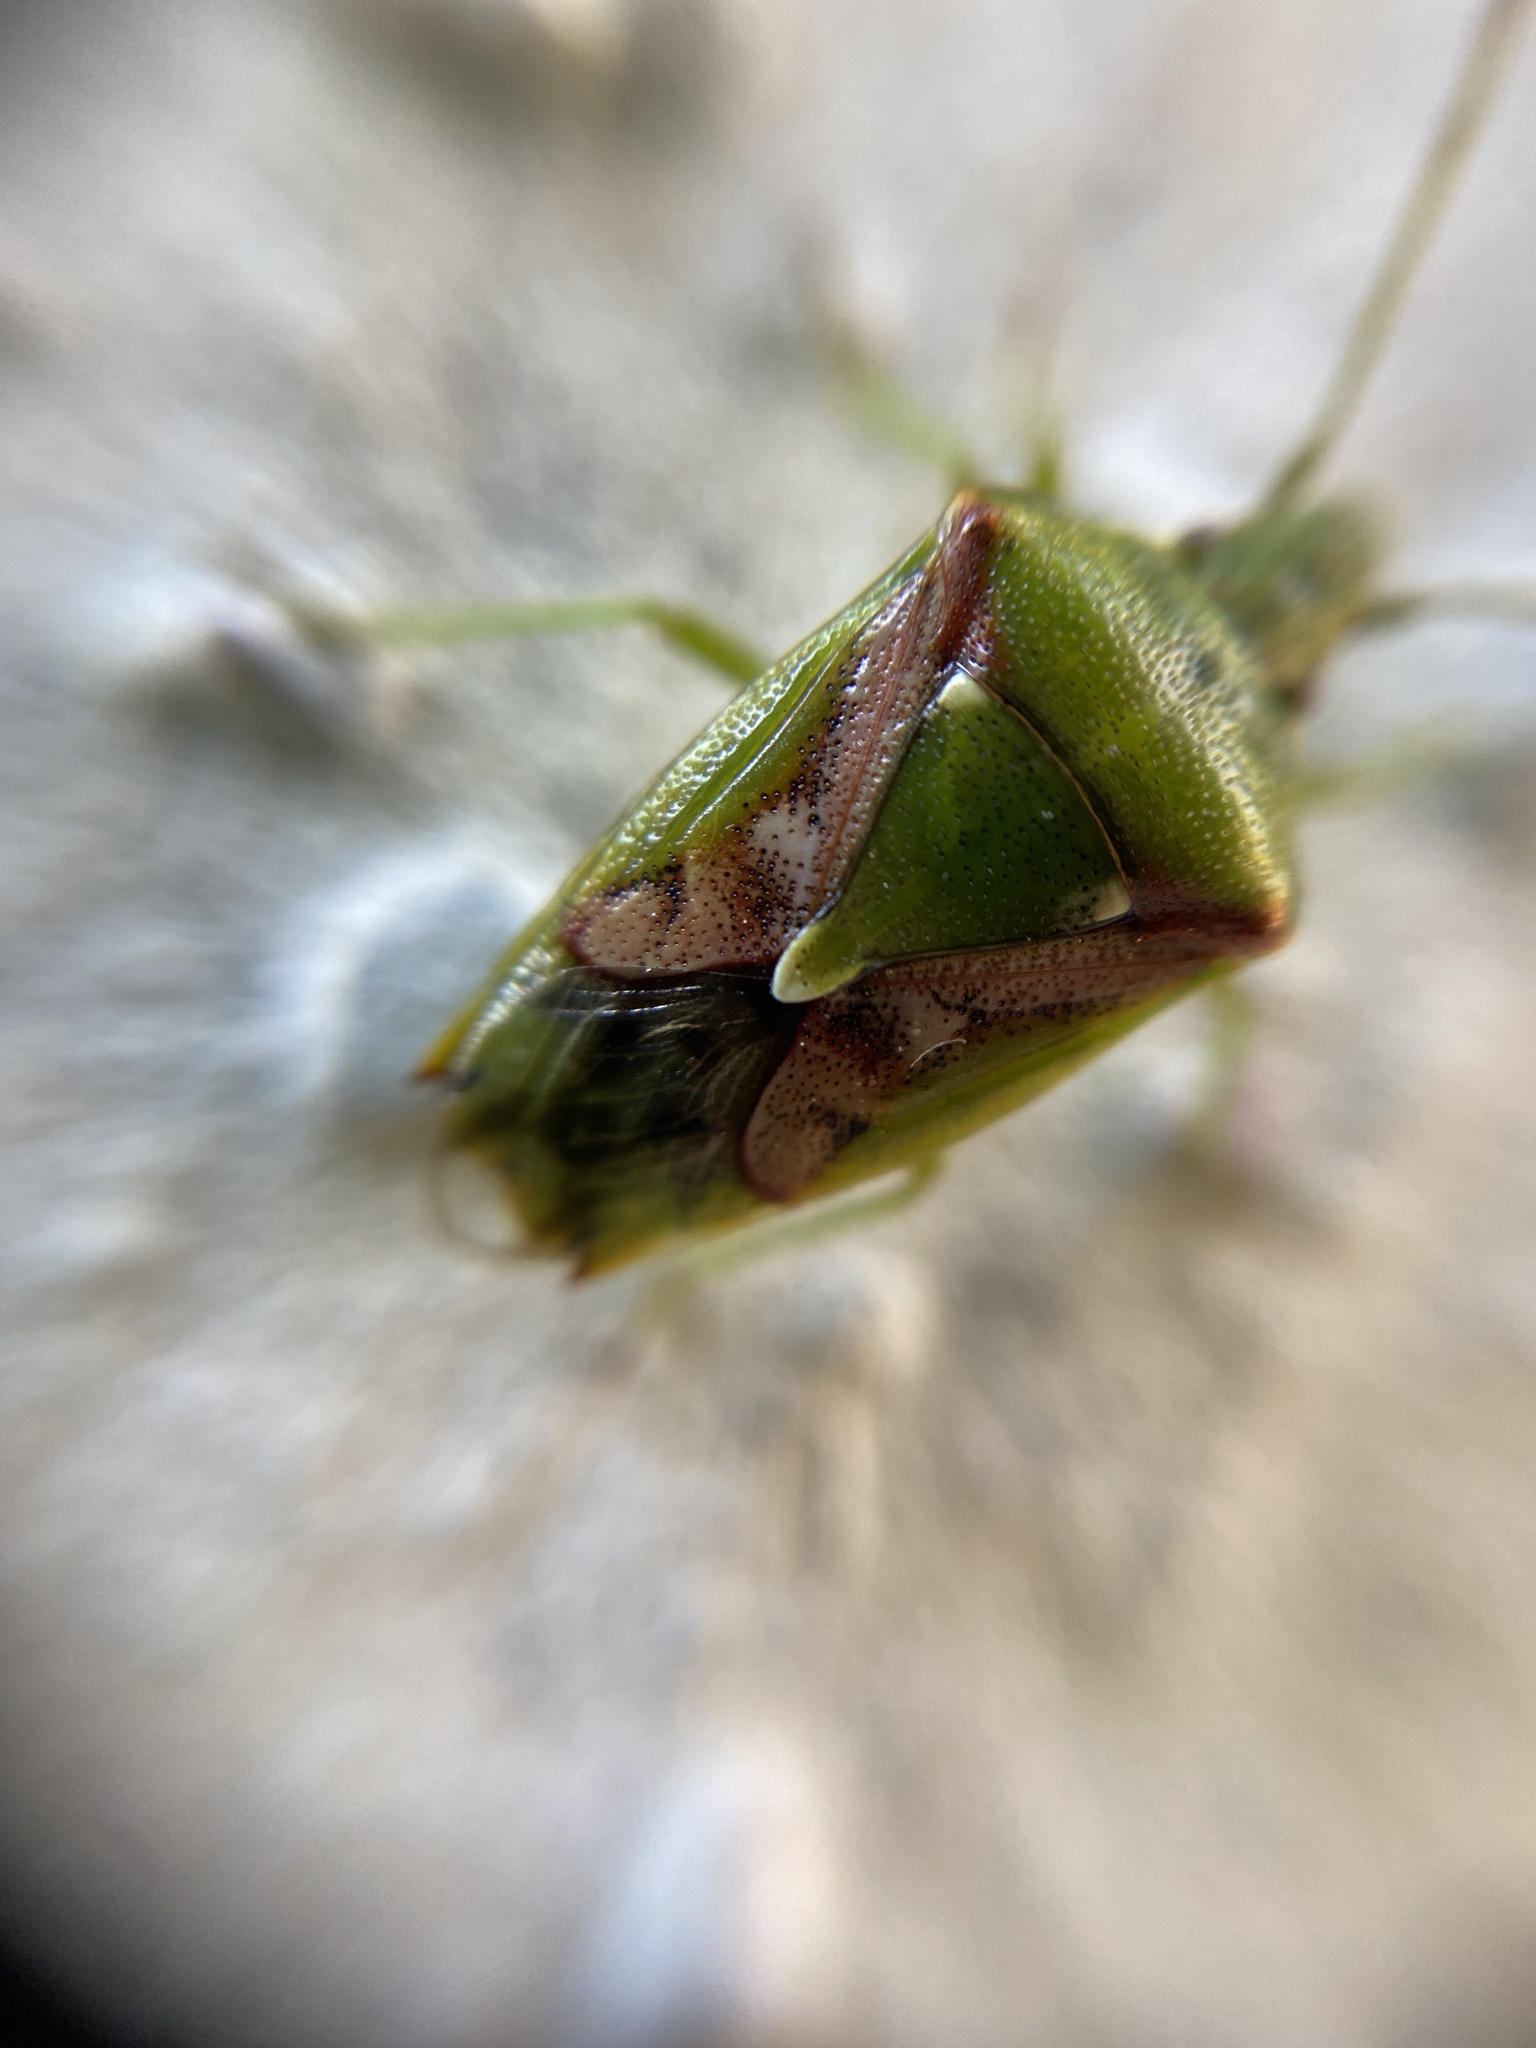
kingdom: Animalia
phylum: Arthropoda
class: Insecta
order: Hemiptera
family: Acanthosomatidae
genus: Cyphostethus
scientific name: Cyphostethus tristriatus
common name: Juniper shieldbug
